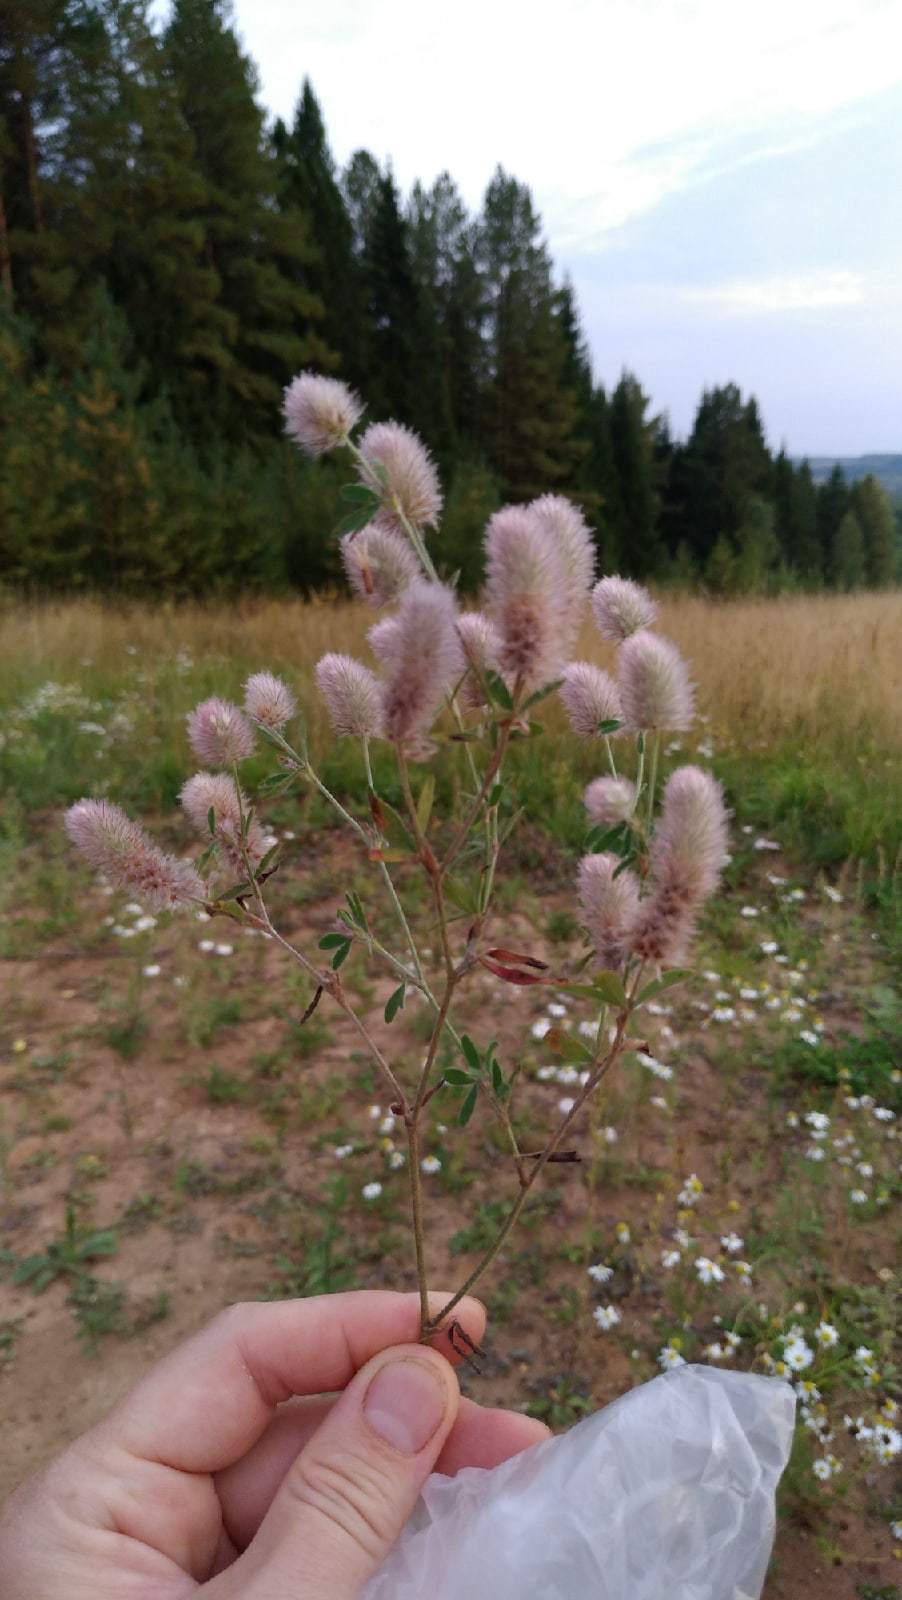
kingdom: Plantae
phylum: Tracheophyta
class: Magnoliopsida
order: Fabales
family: Fabaceae
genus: Trifolium
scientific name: Trifolium arvense
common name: Hare's-foot clover
